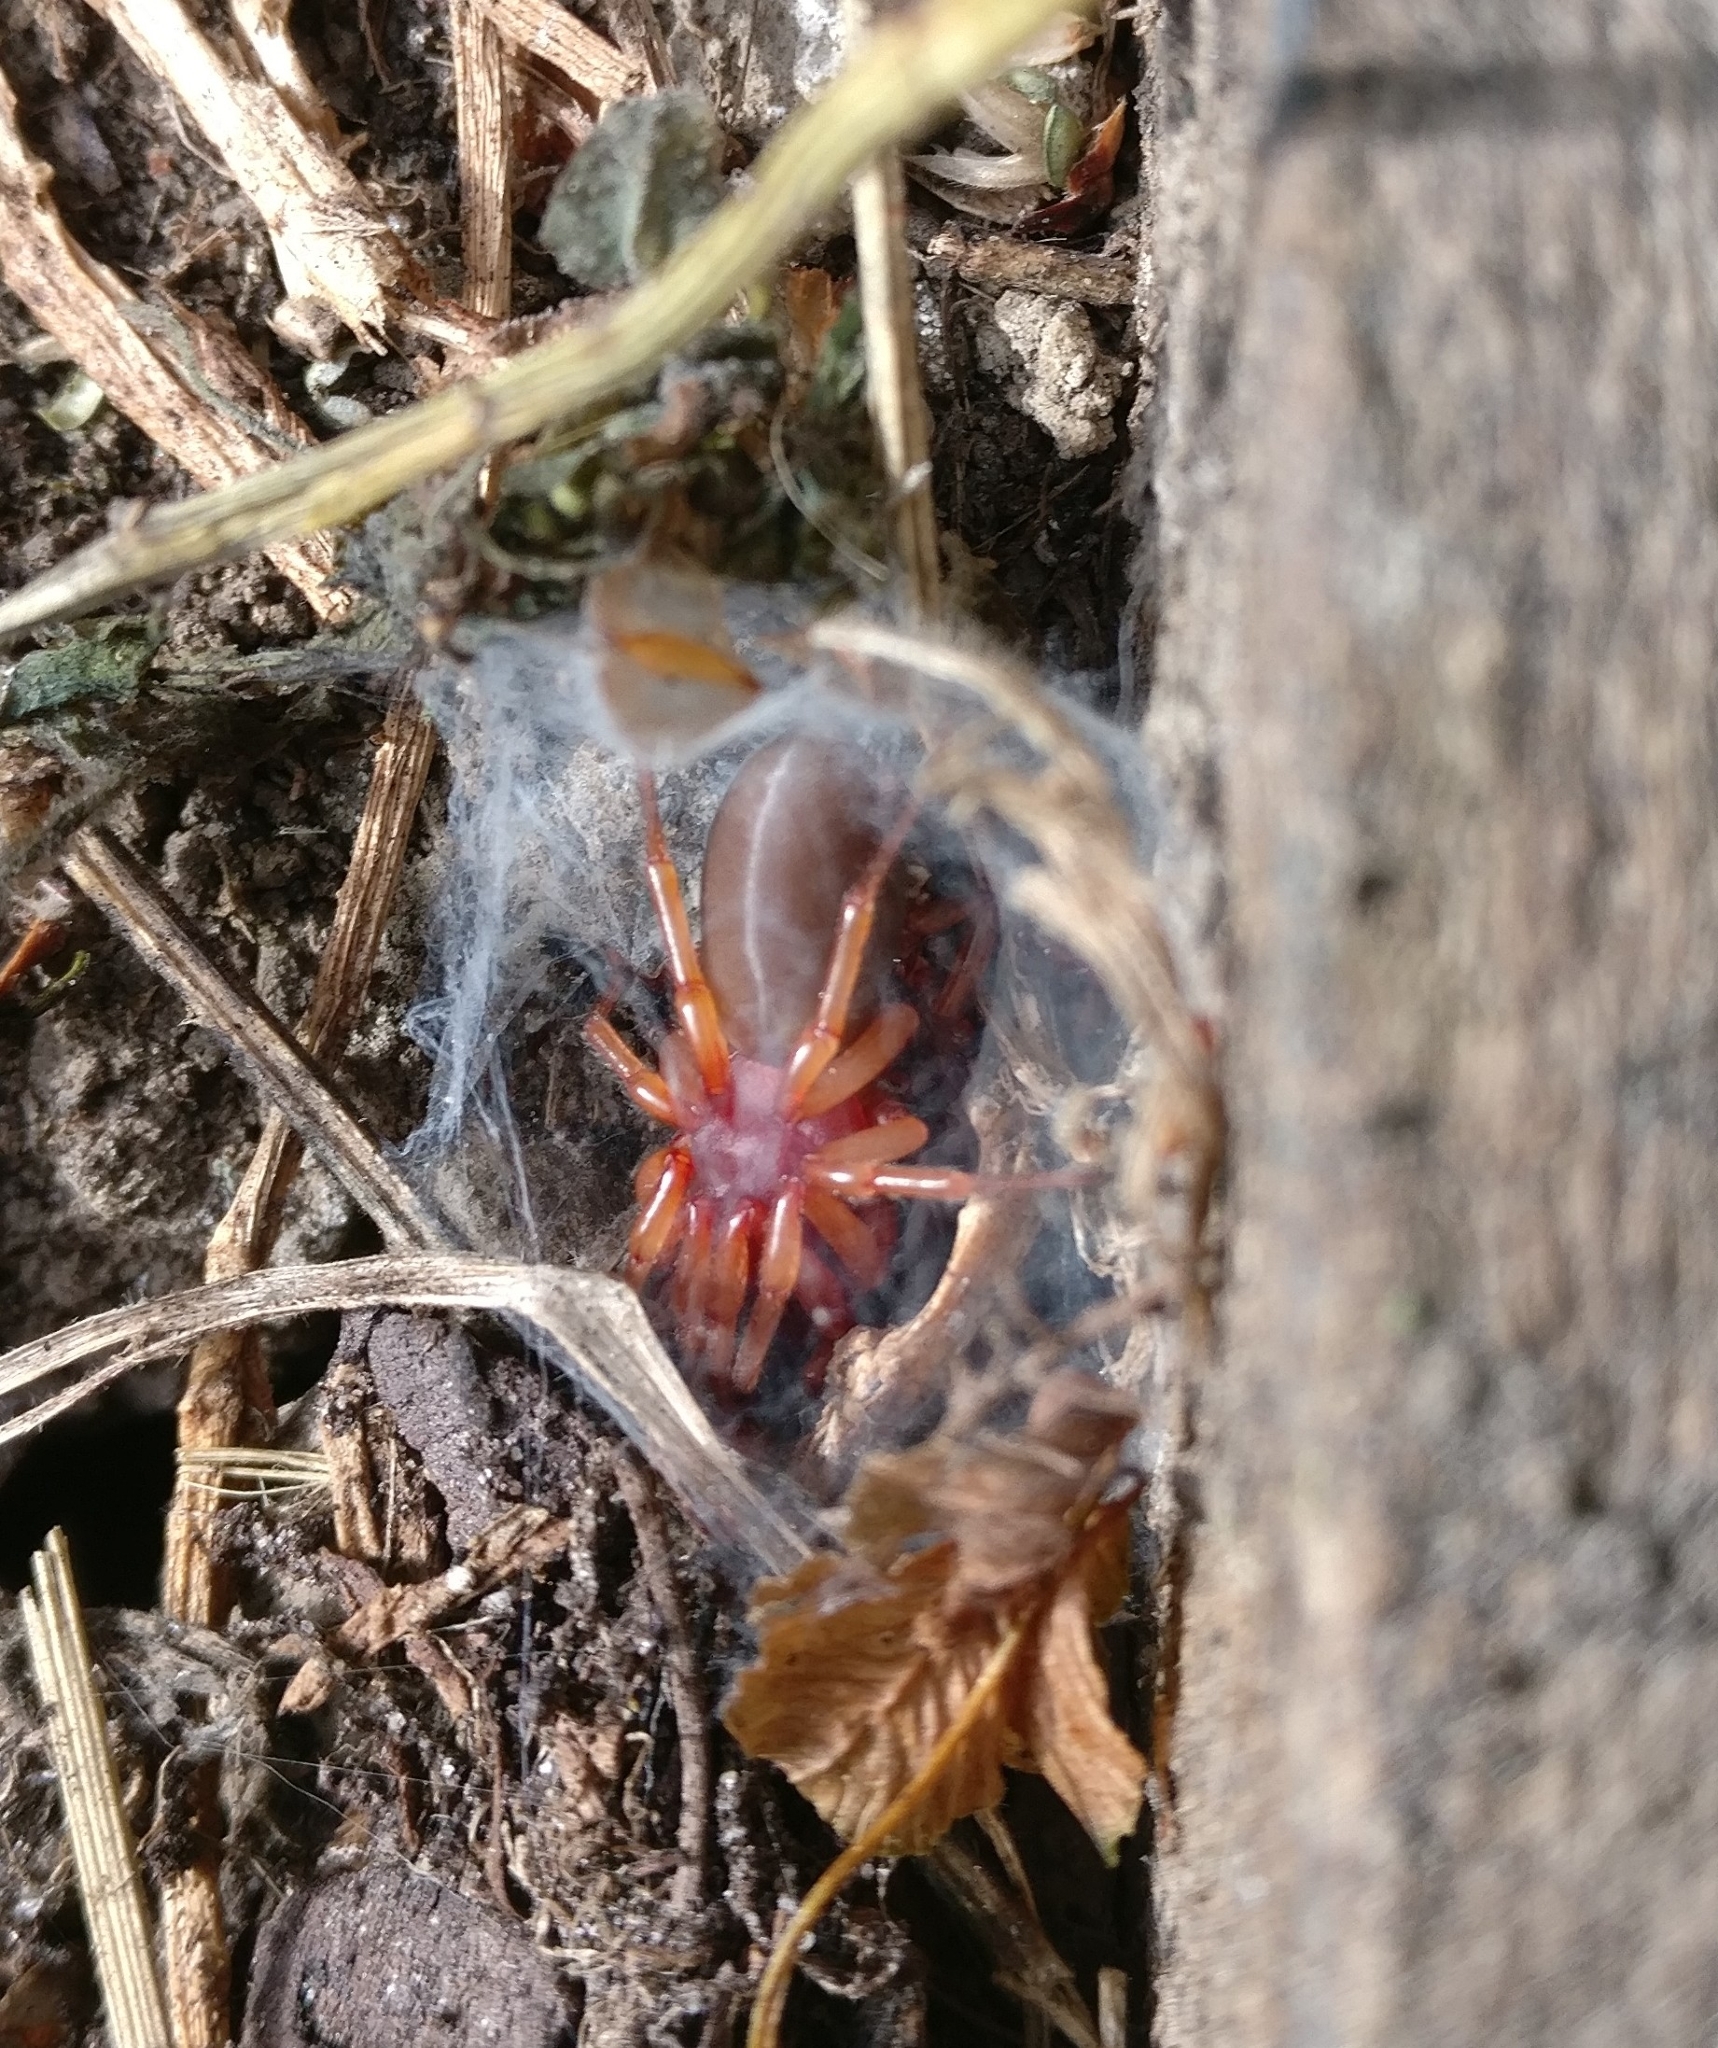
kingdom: Animalia
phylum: Arthropoda
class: Arachnida
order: Araneae
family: Dysderidae
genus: Dysdera
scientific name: Dysdera crocata
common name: Woodlouse spider
